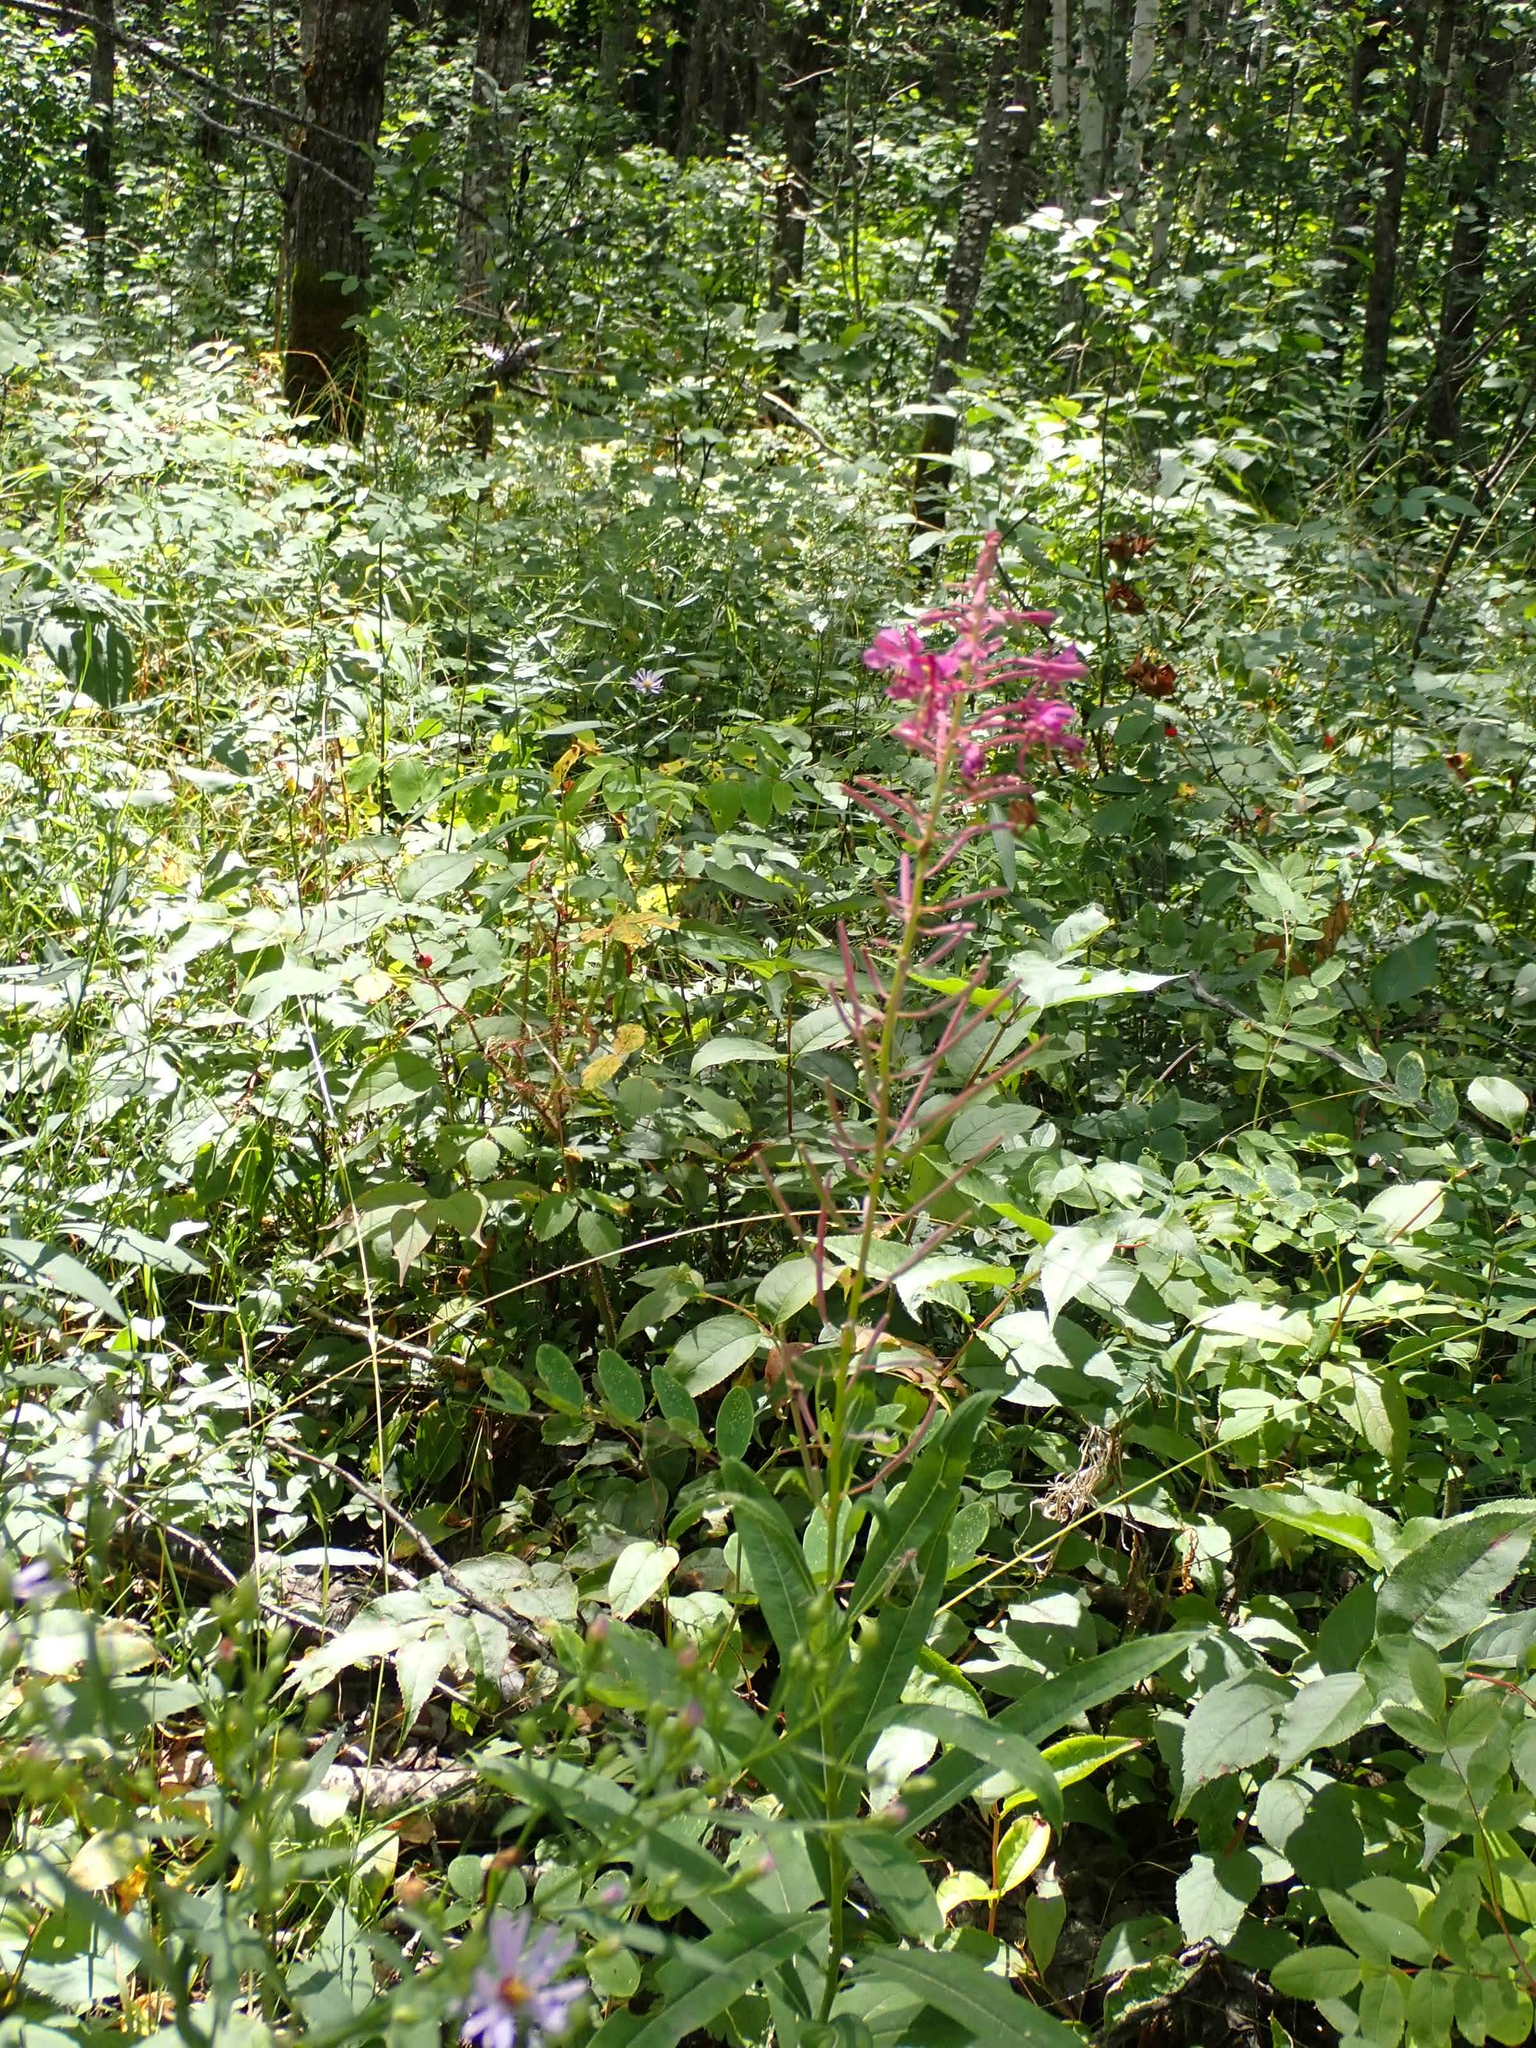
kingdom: Plantae
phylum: Tracheophyta
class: Magnoliopsida
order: Myrtales
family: Onagraceae
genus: Chamaenerion
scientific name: Chamaenerion angustifolium
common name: Fireweed
